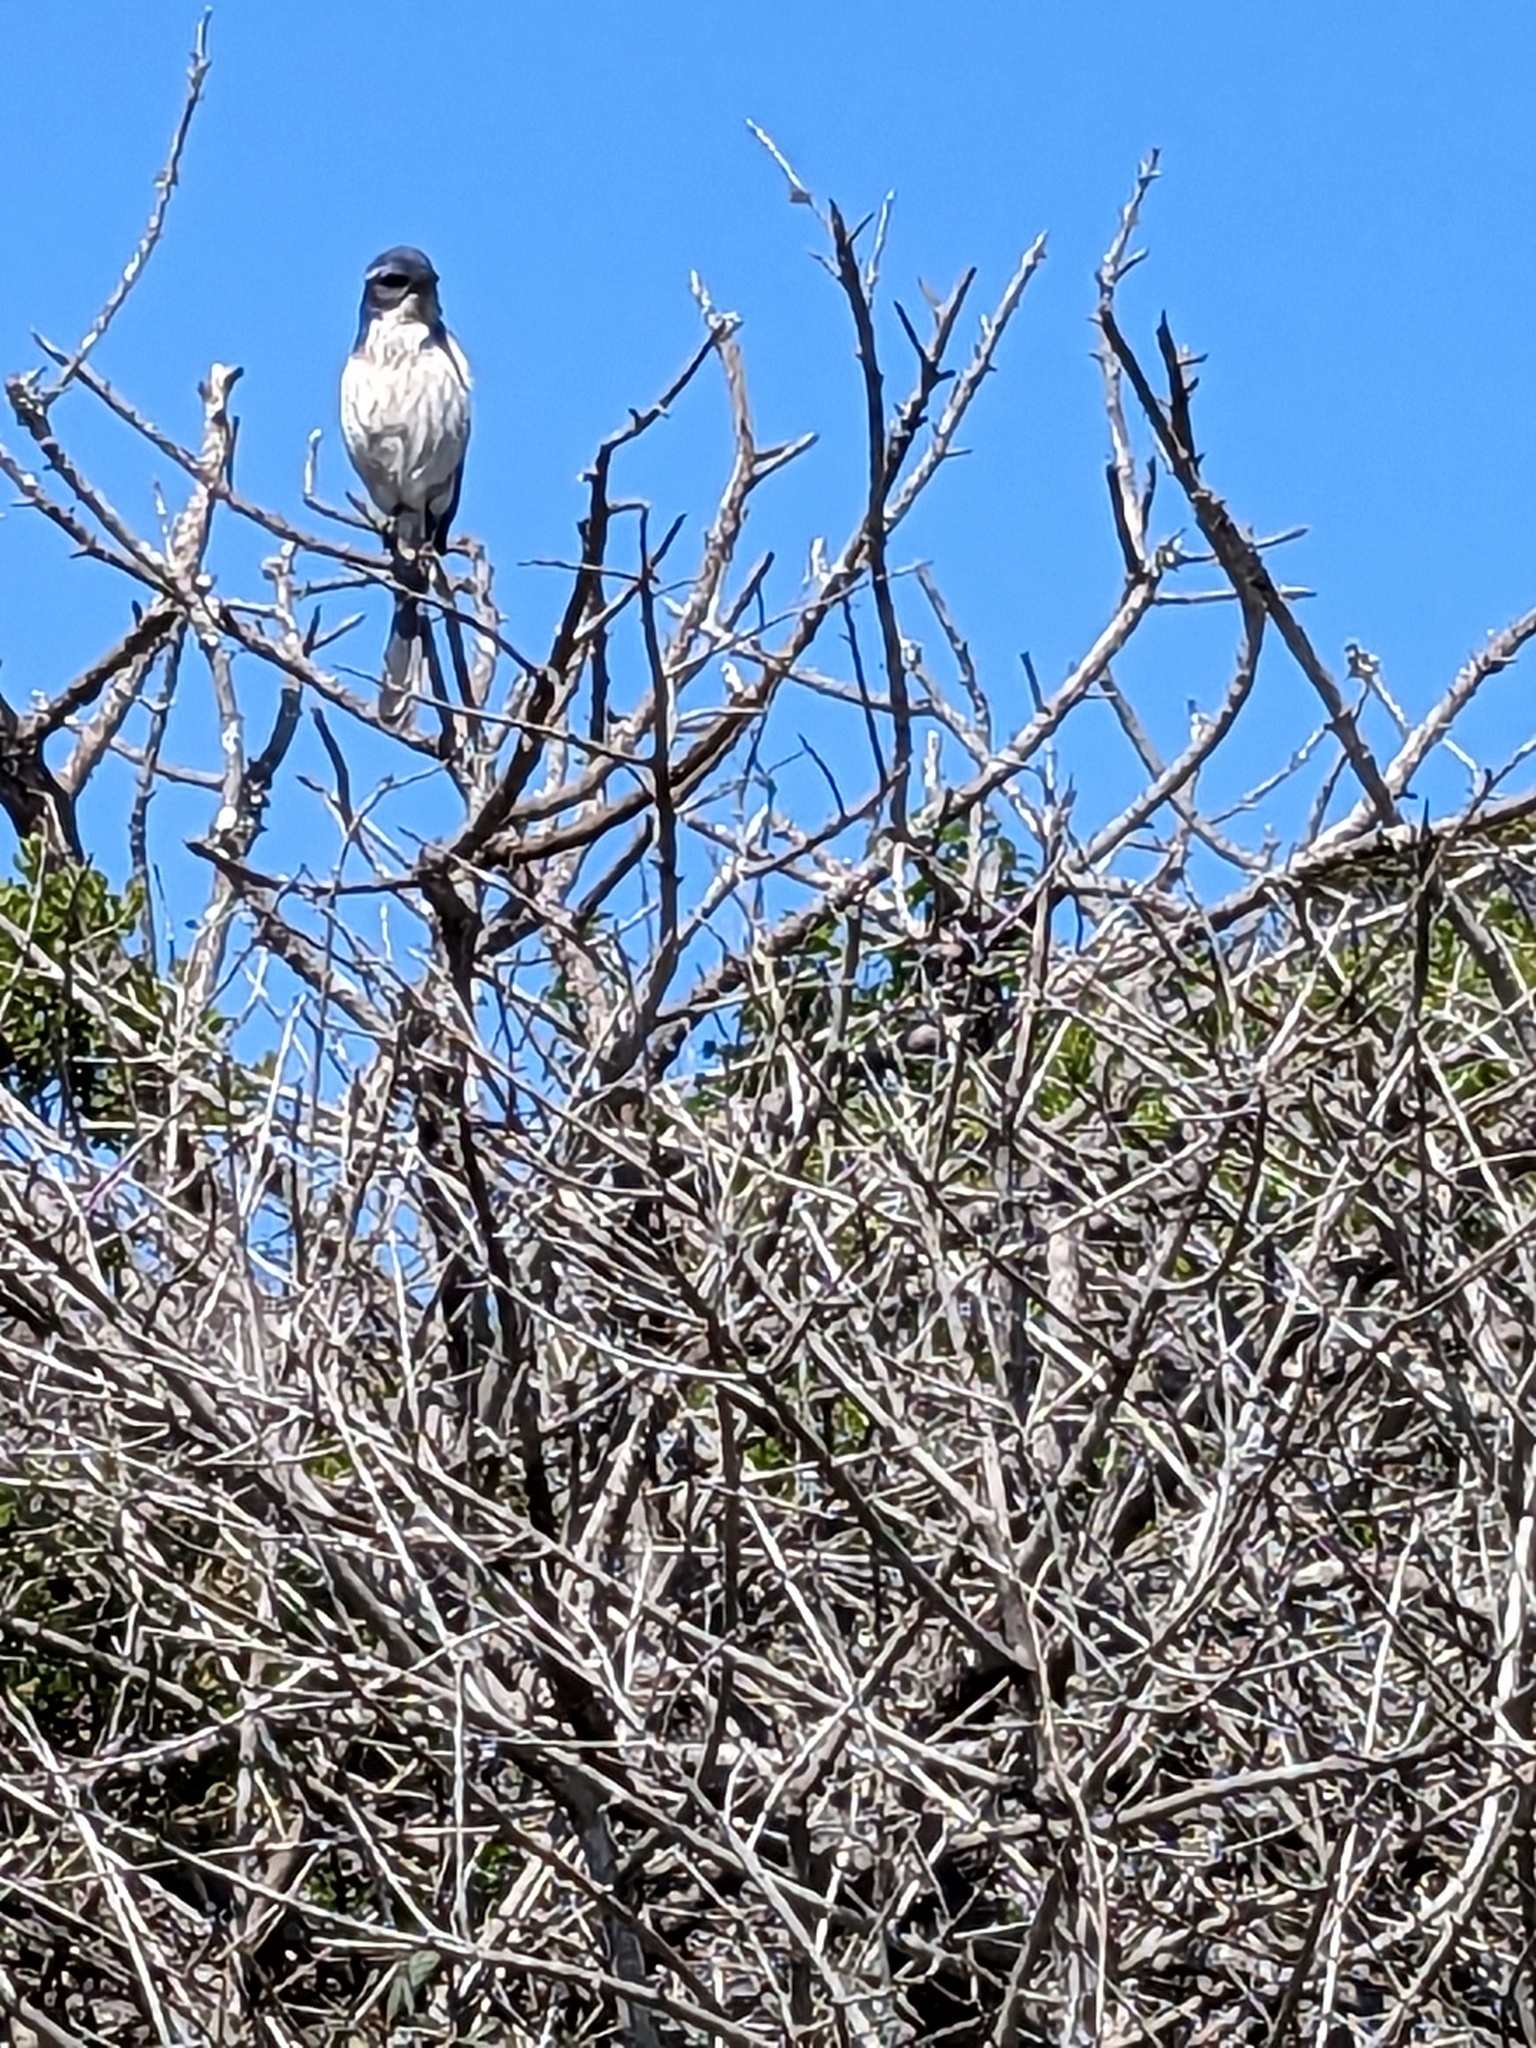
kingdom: Animalia
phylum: Chordata
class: Aves
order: Passeriformes
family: Corvidae
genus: Aphelocoma
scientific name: Aphelocoma californica
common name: California scrub-jay
